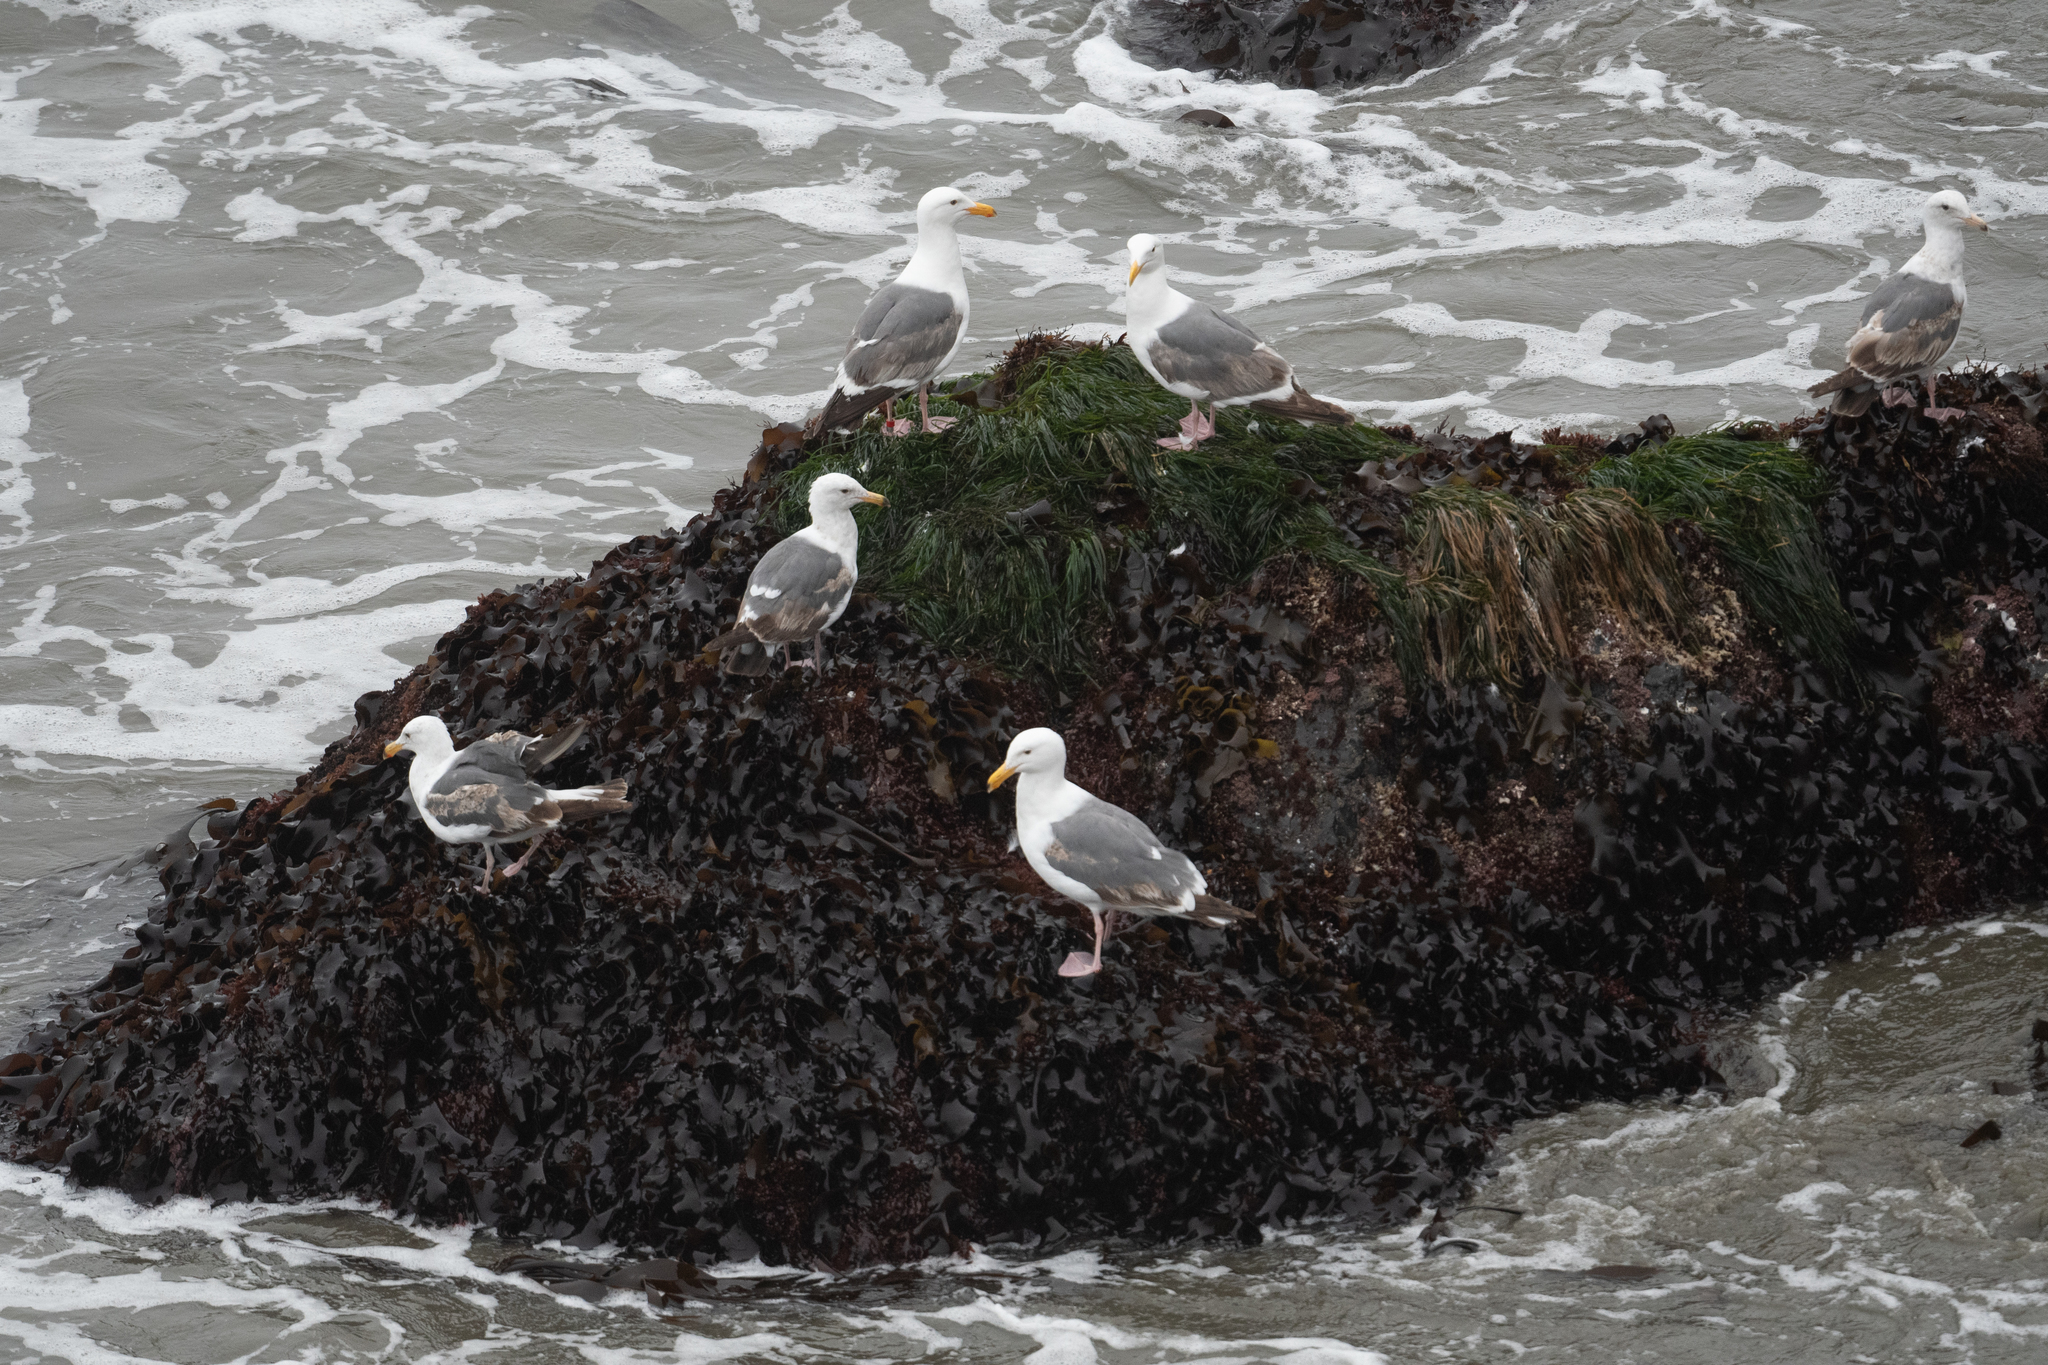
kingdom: Animalia
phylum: Chordata
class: Aves
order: Charadriiformes
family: Laridae
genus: Larus
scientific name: Larus occidentalis
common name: Western gull
